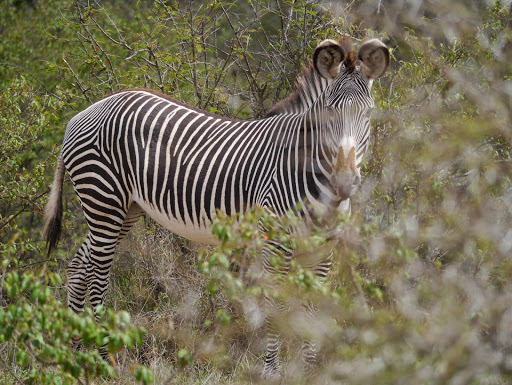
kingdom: Animalia
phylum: Chordata
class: Mammalia
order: Perissodactyla
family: Equidae
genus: Equus
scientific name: Equus grevyi
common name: Grevy's zebra
